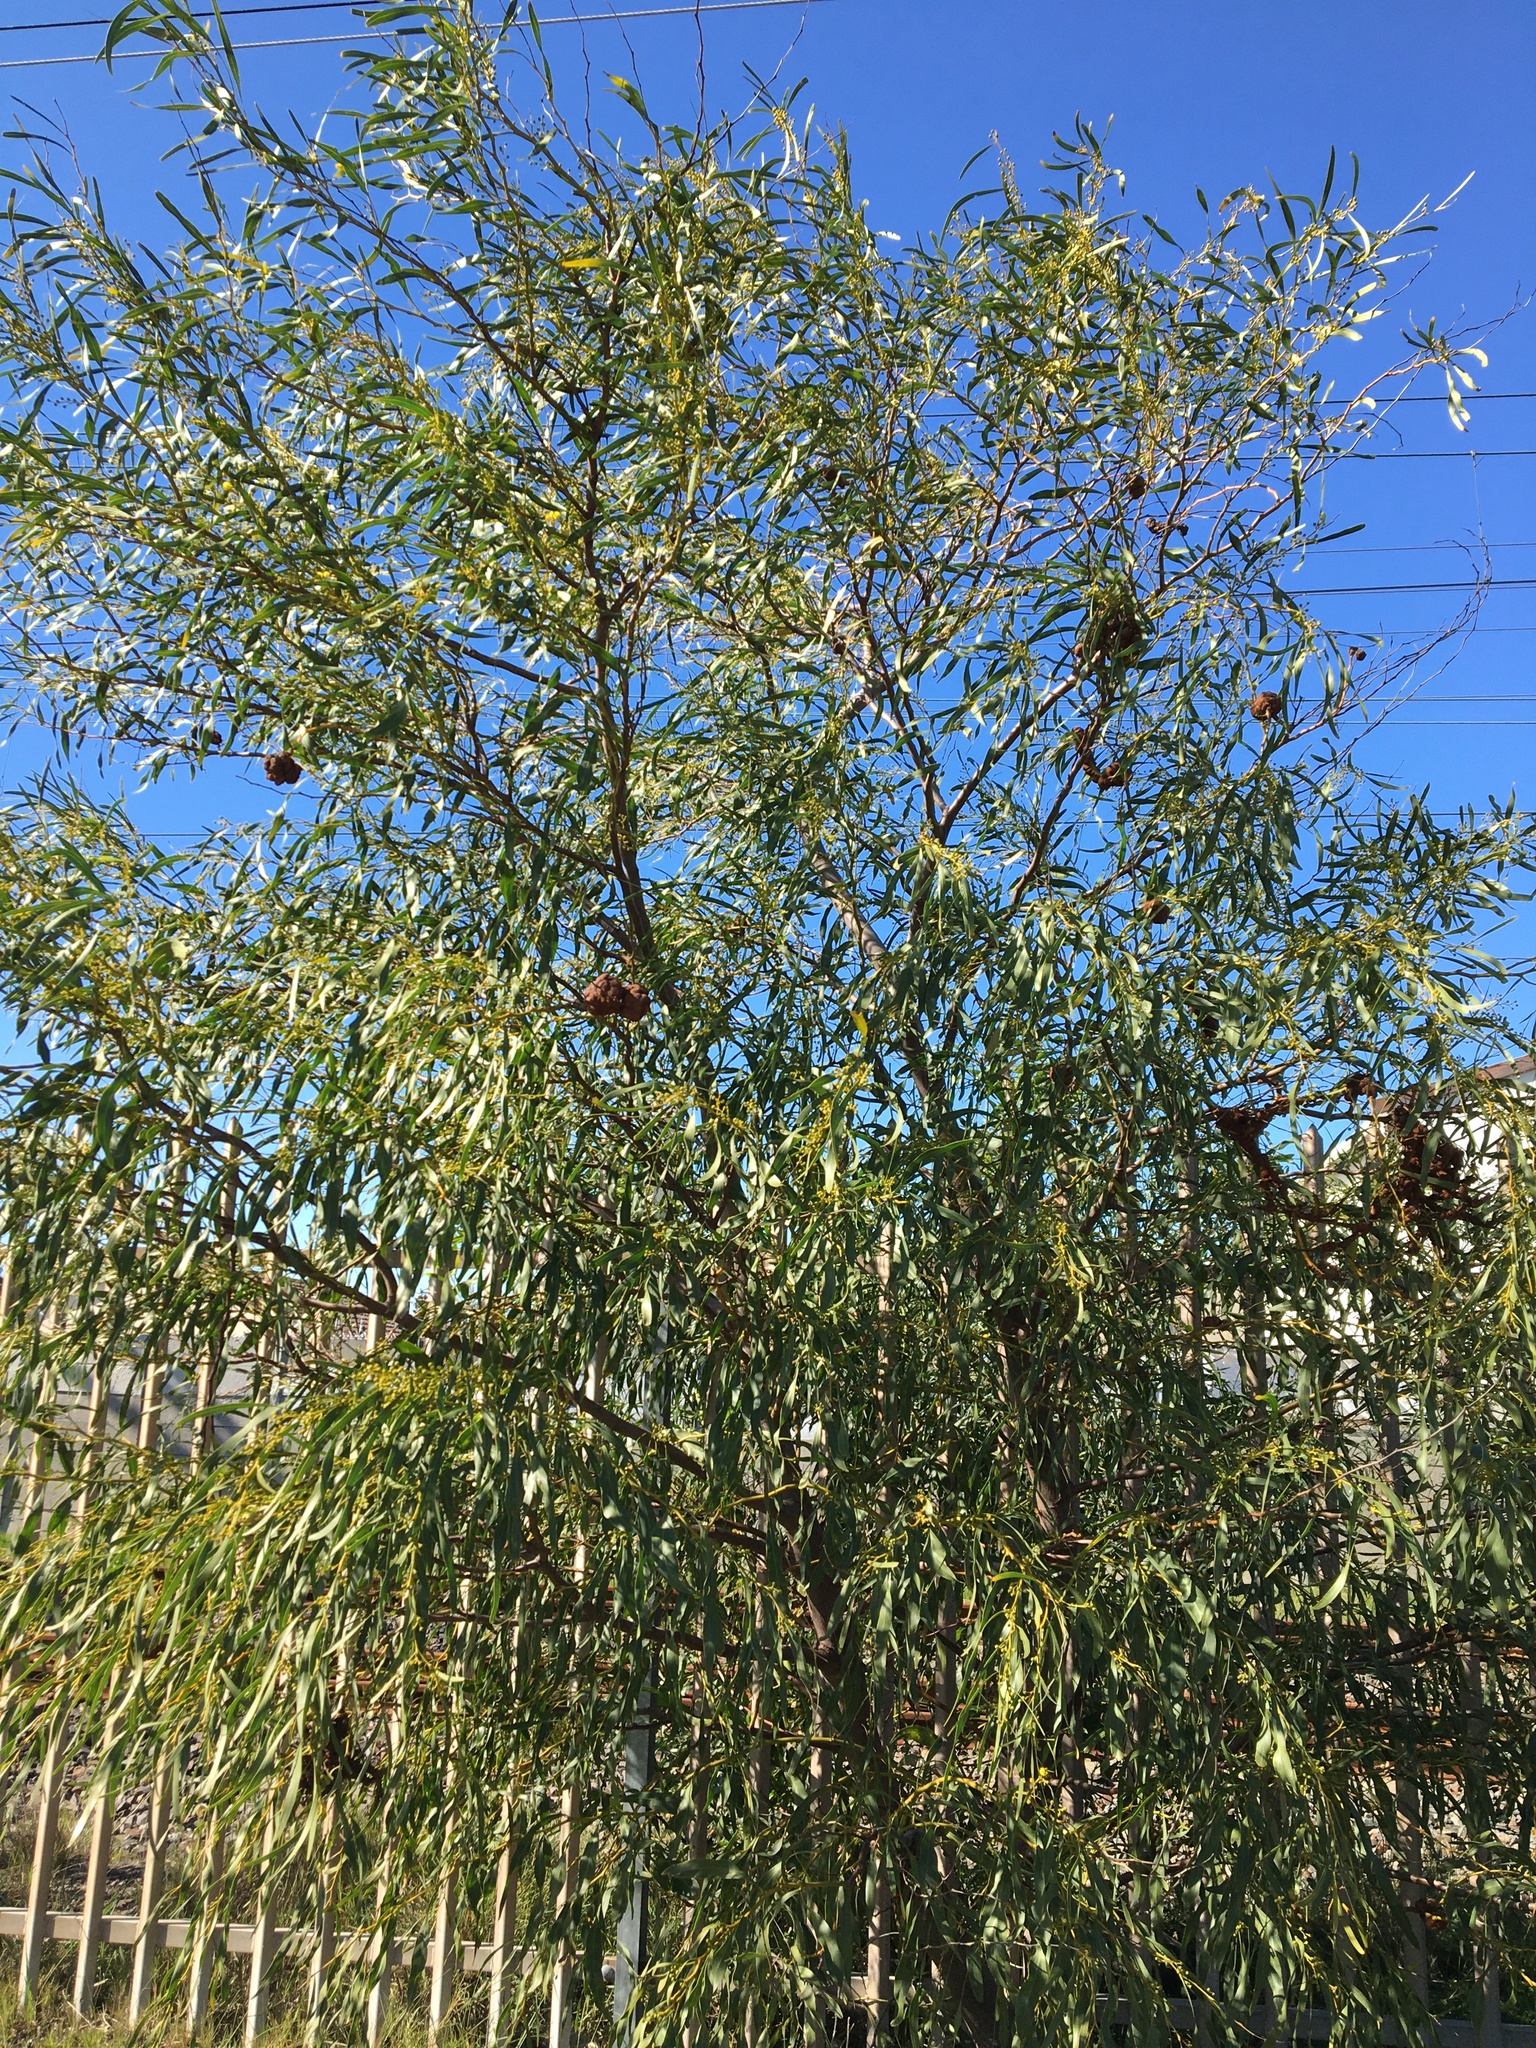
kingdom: Plantae
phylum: Tracheophyta
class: Magnoliopsida
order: Fabales
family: Fabaceae
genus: Acacia
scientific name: Acacia saligna
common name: Orange wattle
